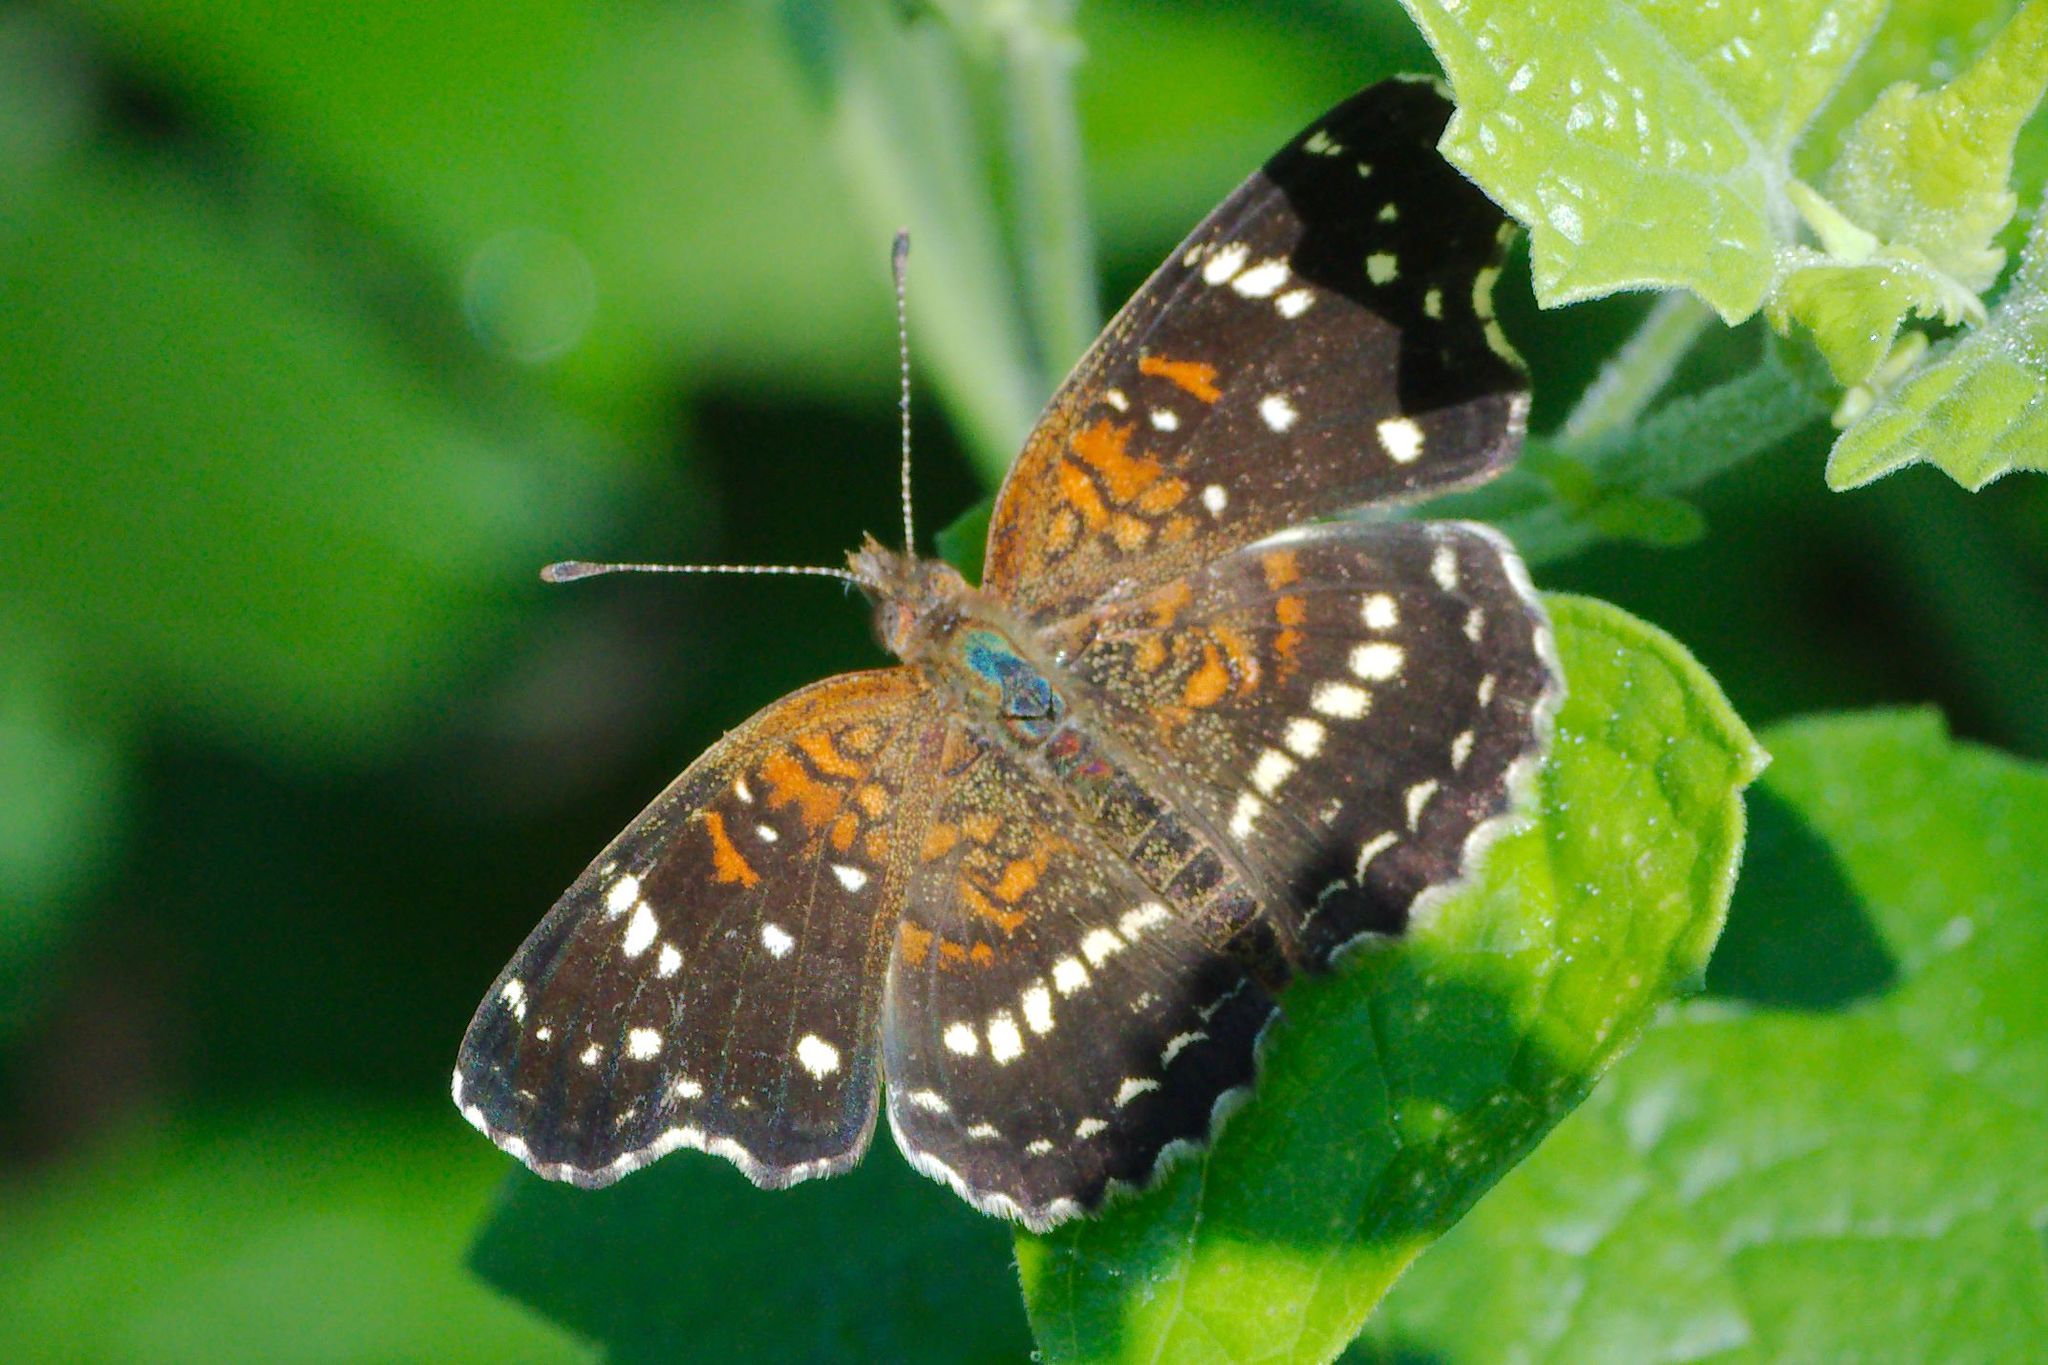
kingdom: Animalia
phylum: Arthropoda
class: Insecta
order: Lepidoptera
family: Nymphalidae
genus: Anthanassa
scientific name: Anthanassa texana
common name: Texan crescent
